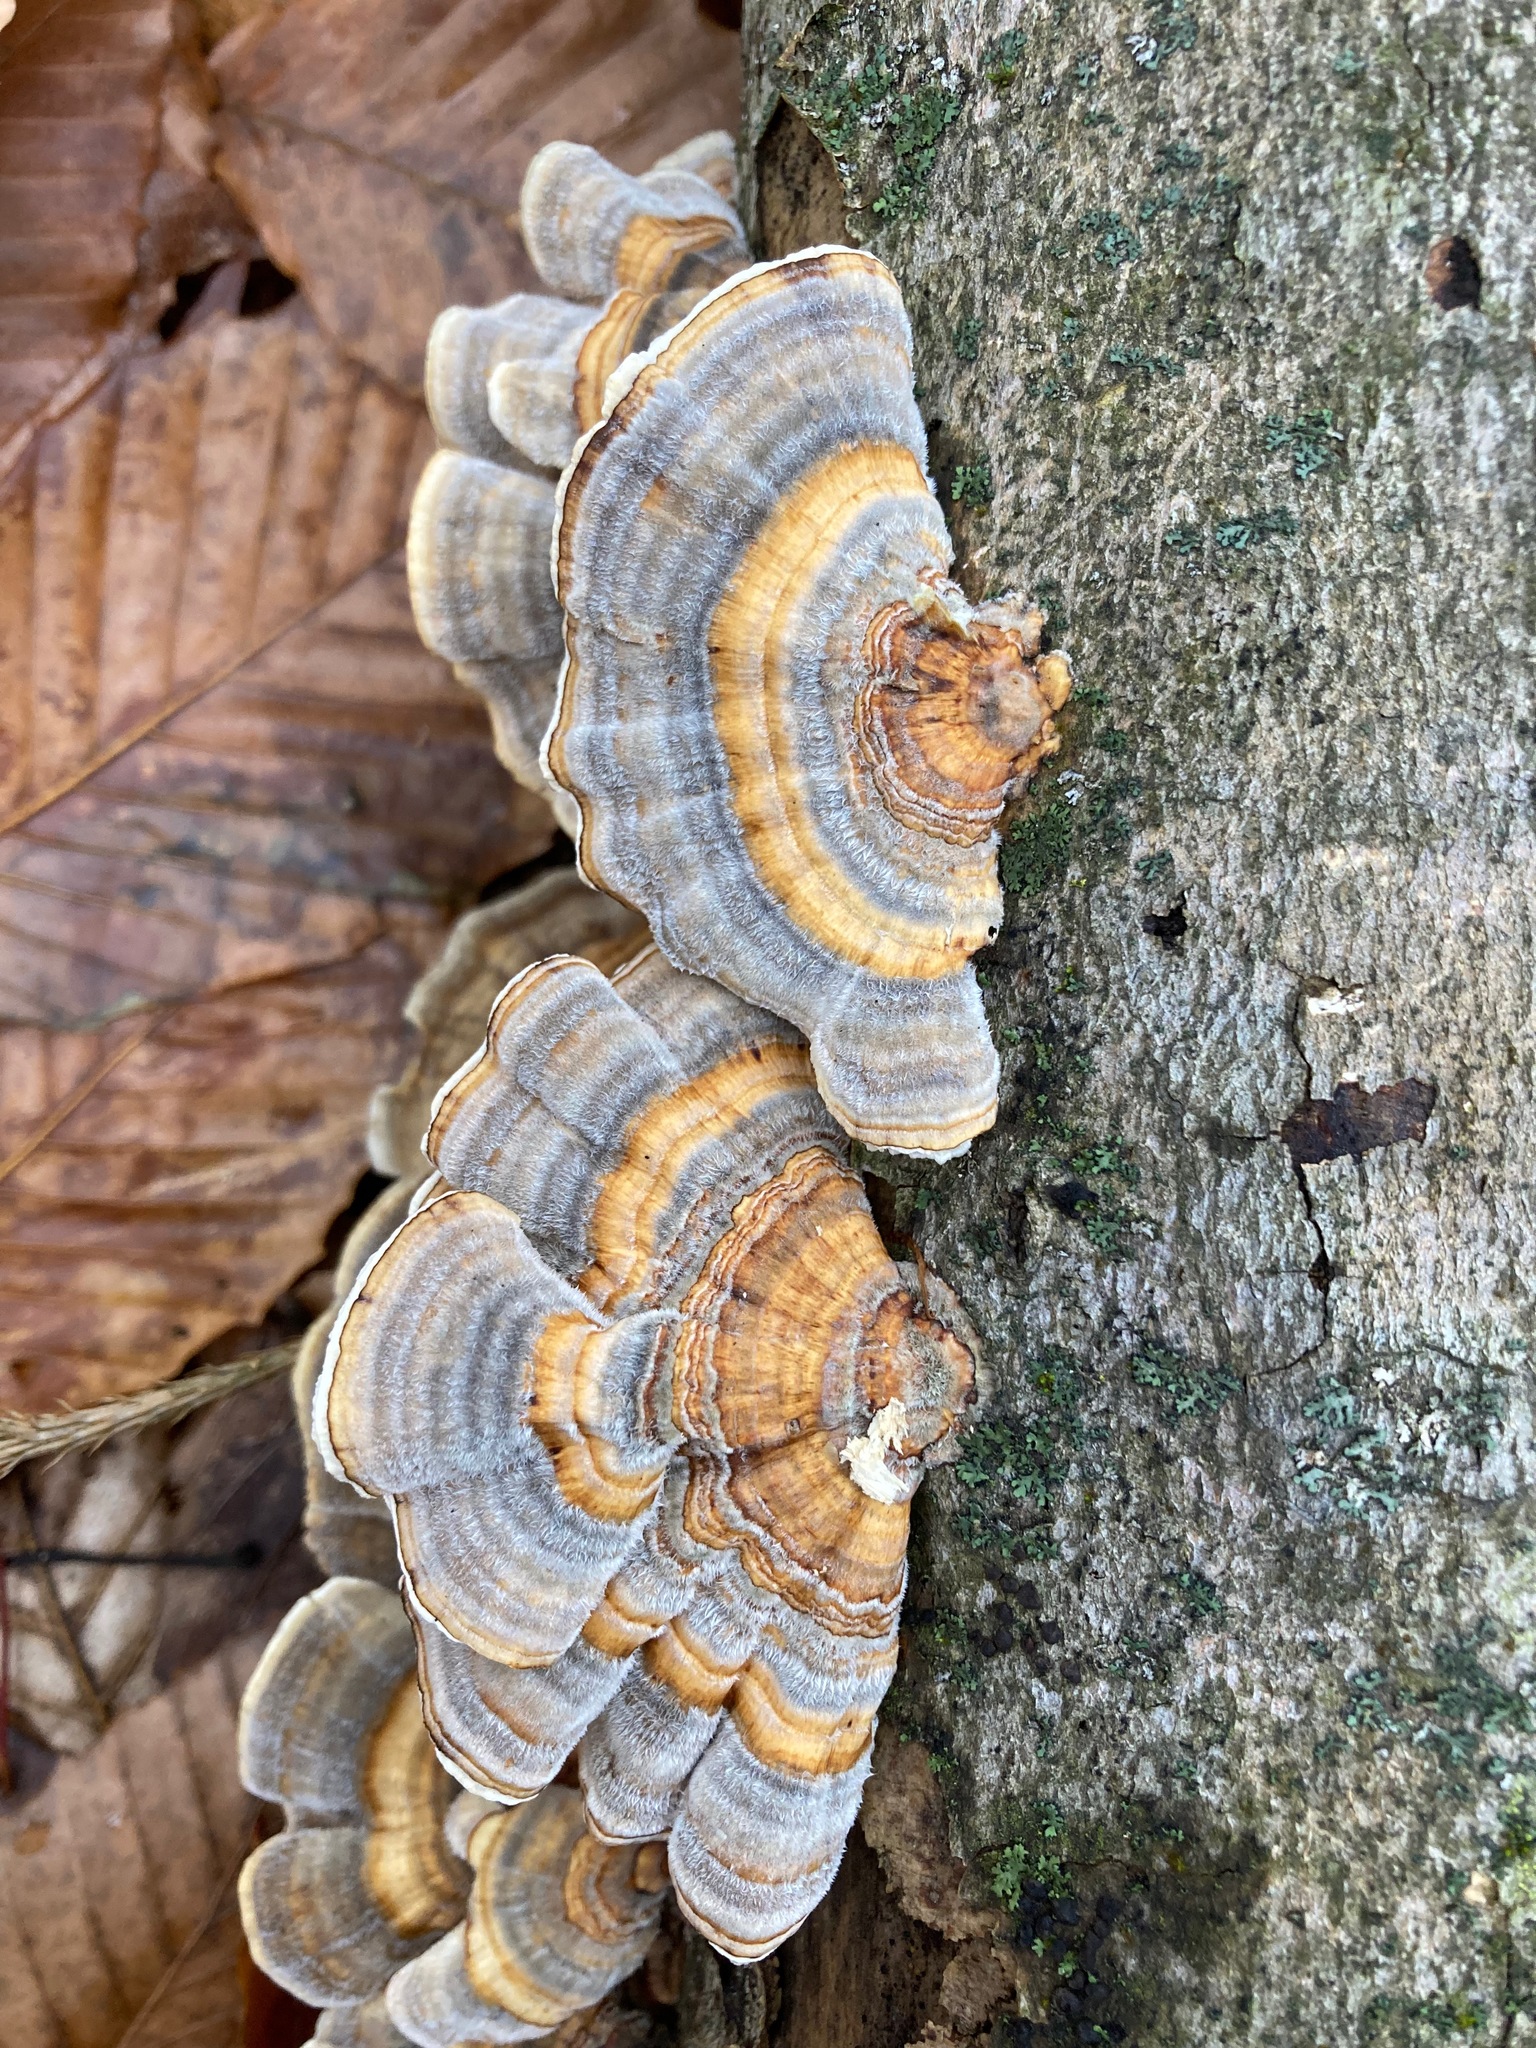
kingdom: Fungi
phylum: Basidiomycota
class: Agaricomycetes
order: Polyporales
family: Polyporaceae
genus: Trametes
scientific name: Trametes versicolor
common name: Turkeytail
